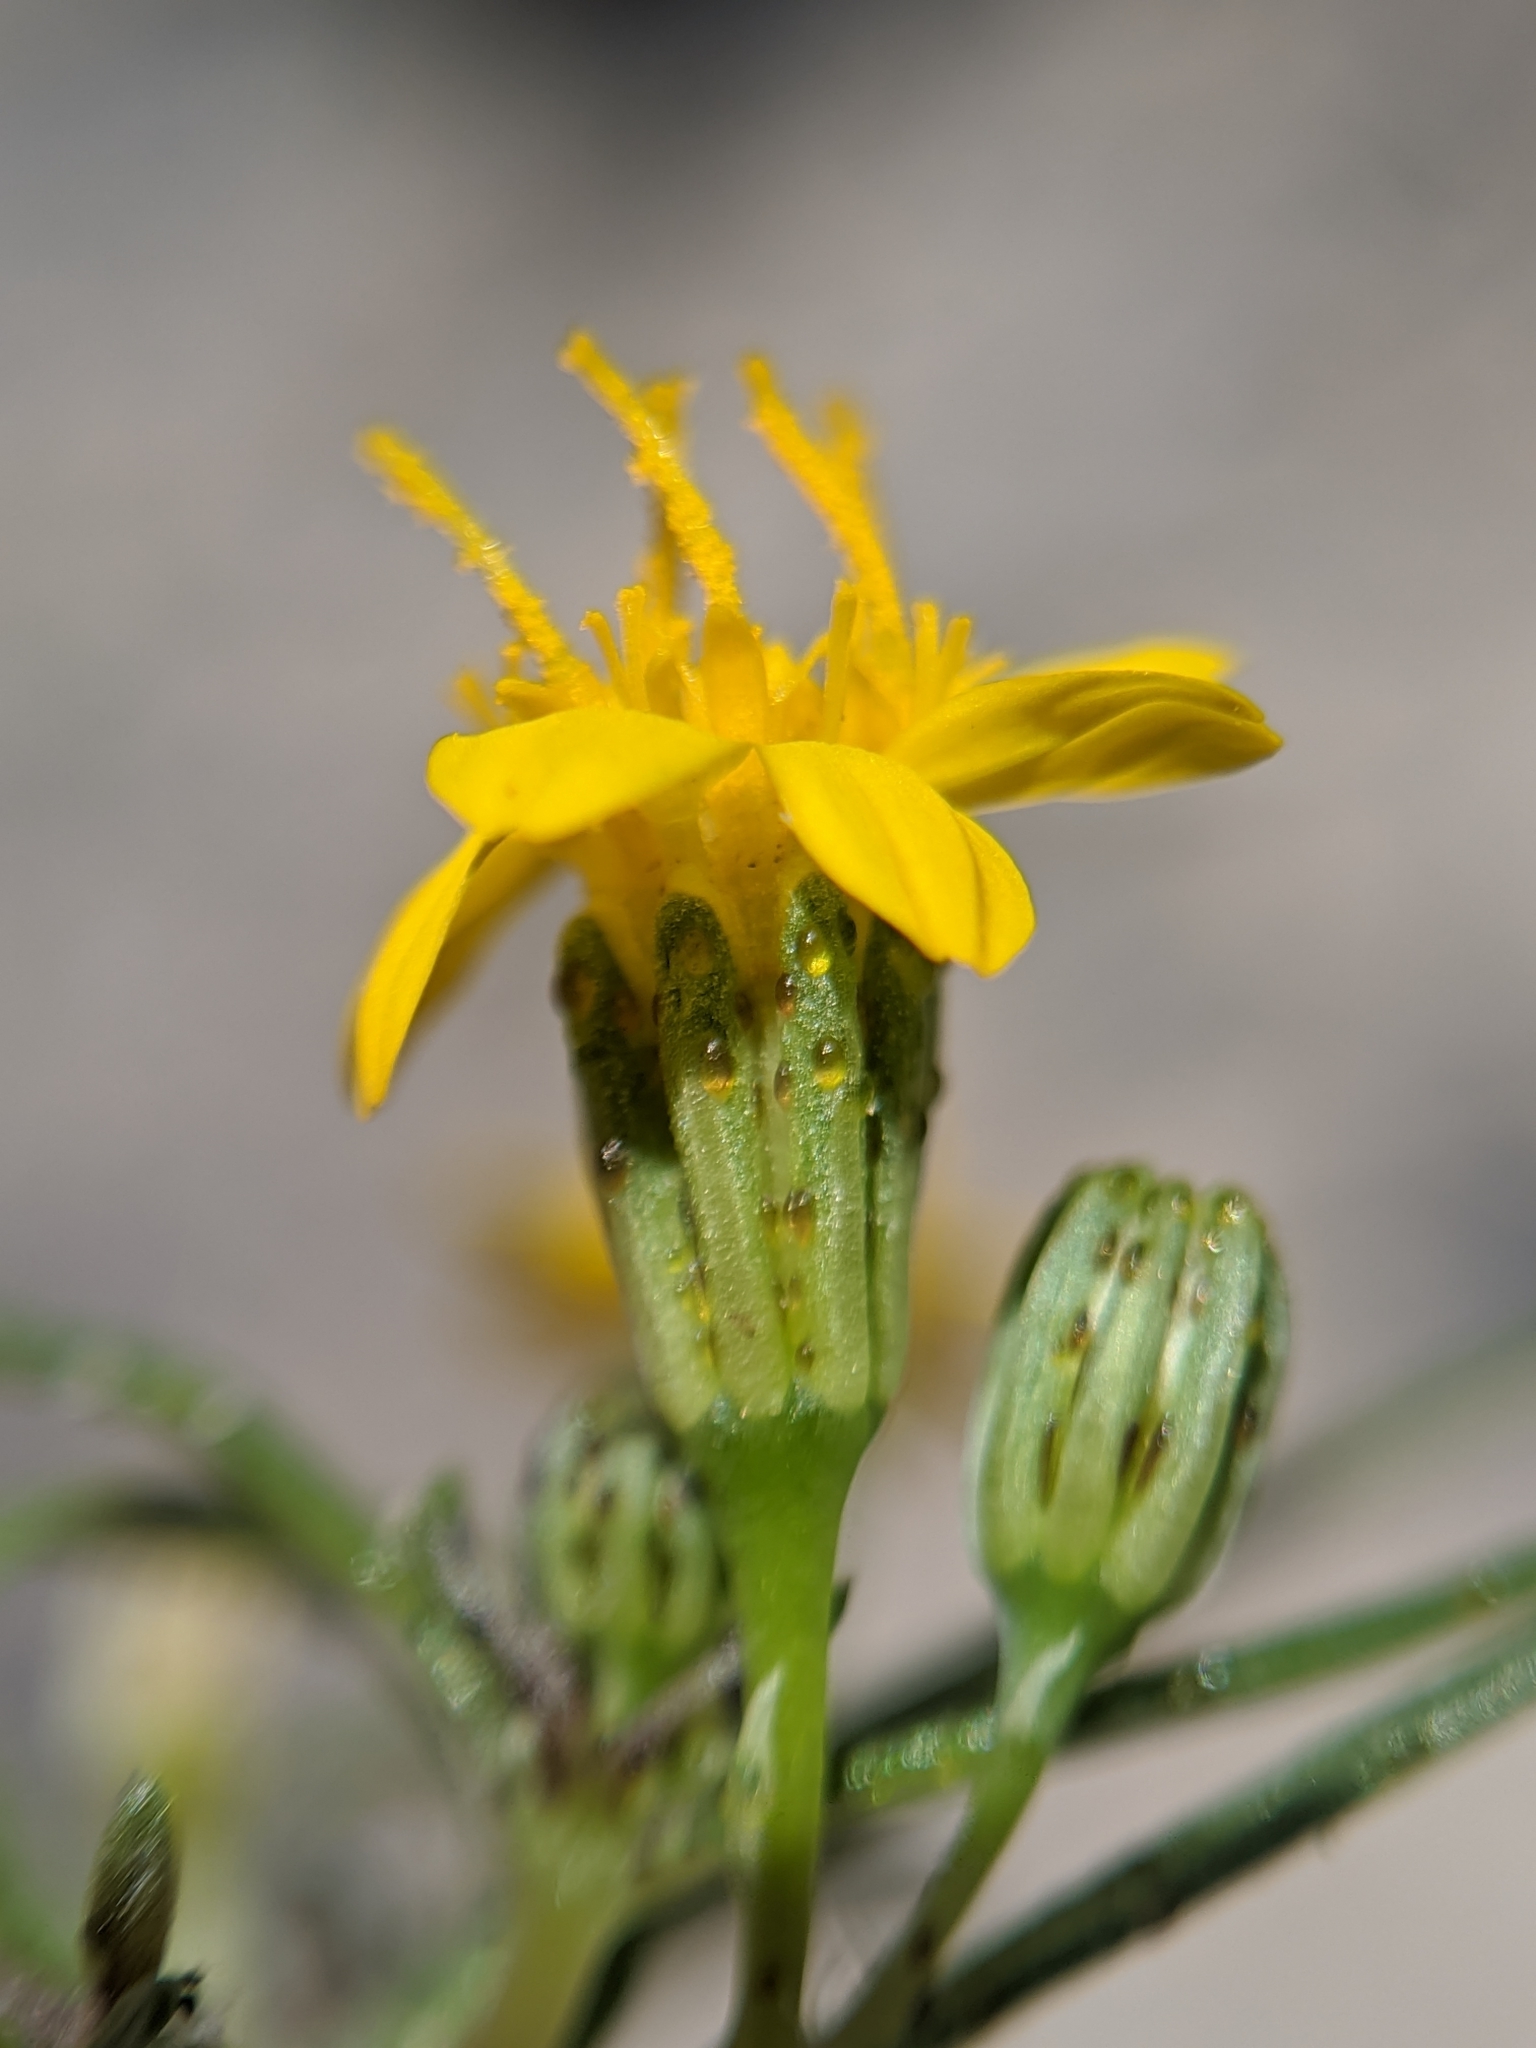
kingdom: Plantae
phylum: Tracheophyta
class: Magnoliopsida
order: Asterales
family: Asteraceae
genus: Pectis
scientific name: Pectis papposa
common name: Many-bristle chinchweed
